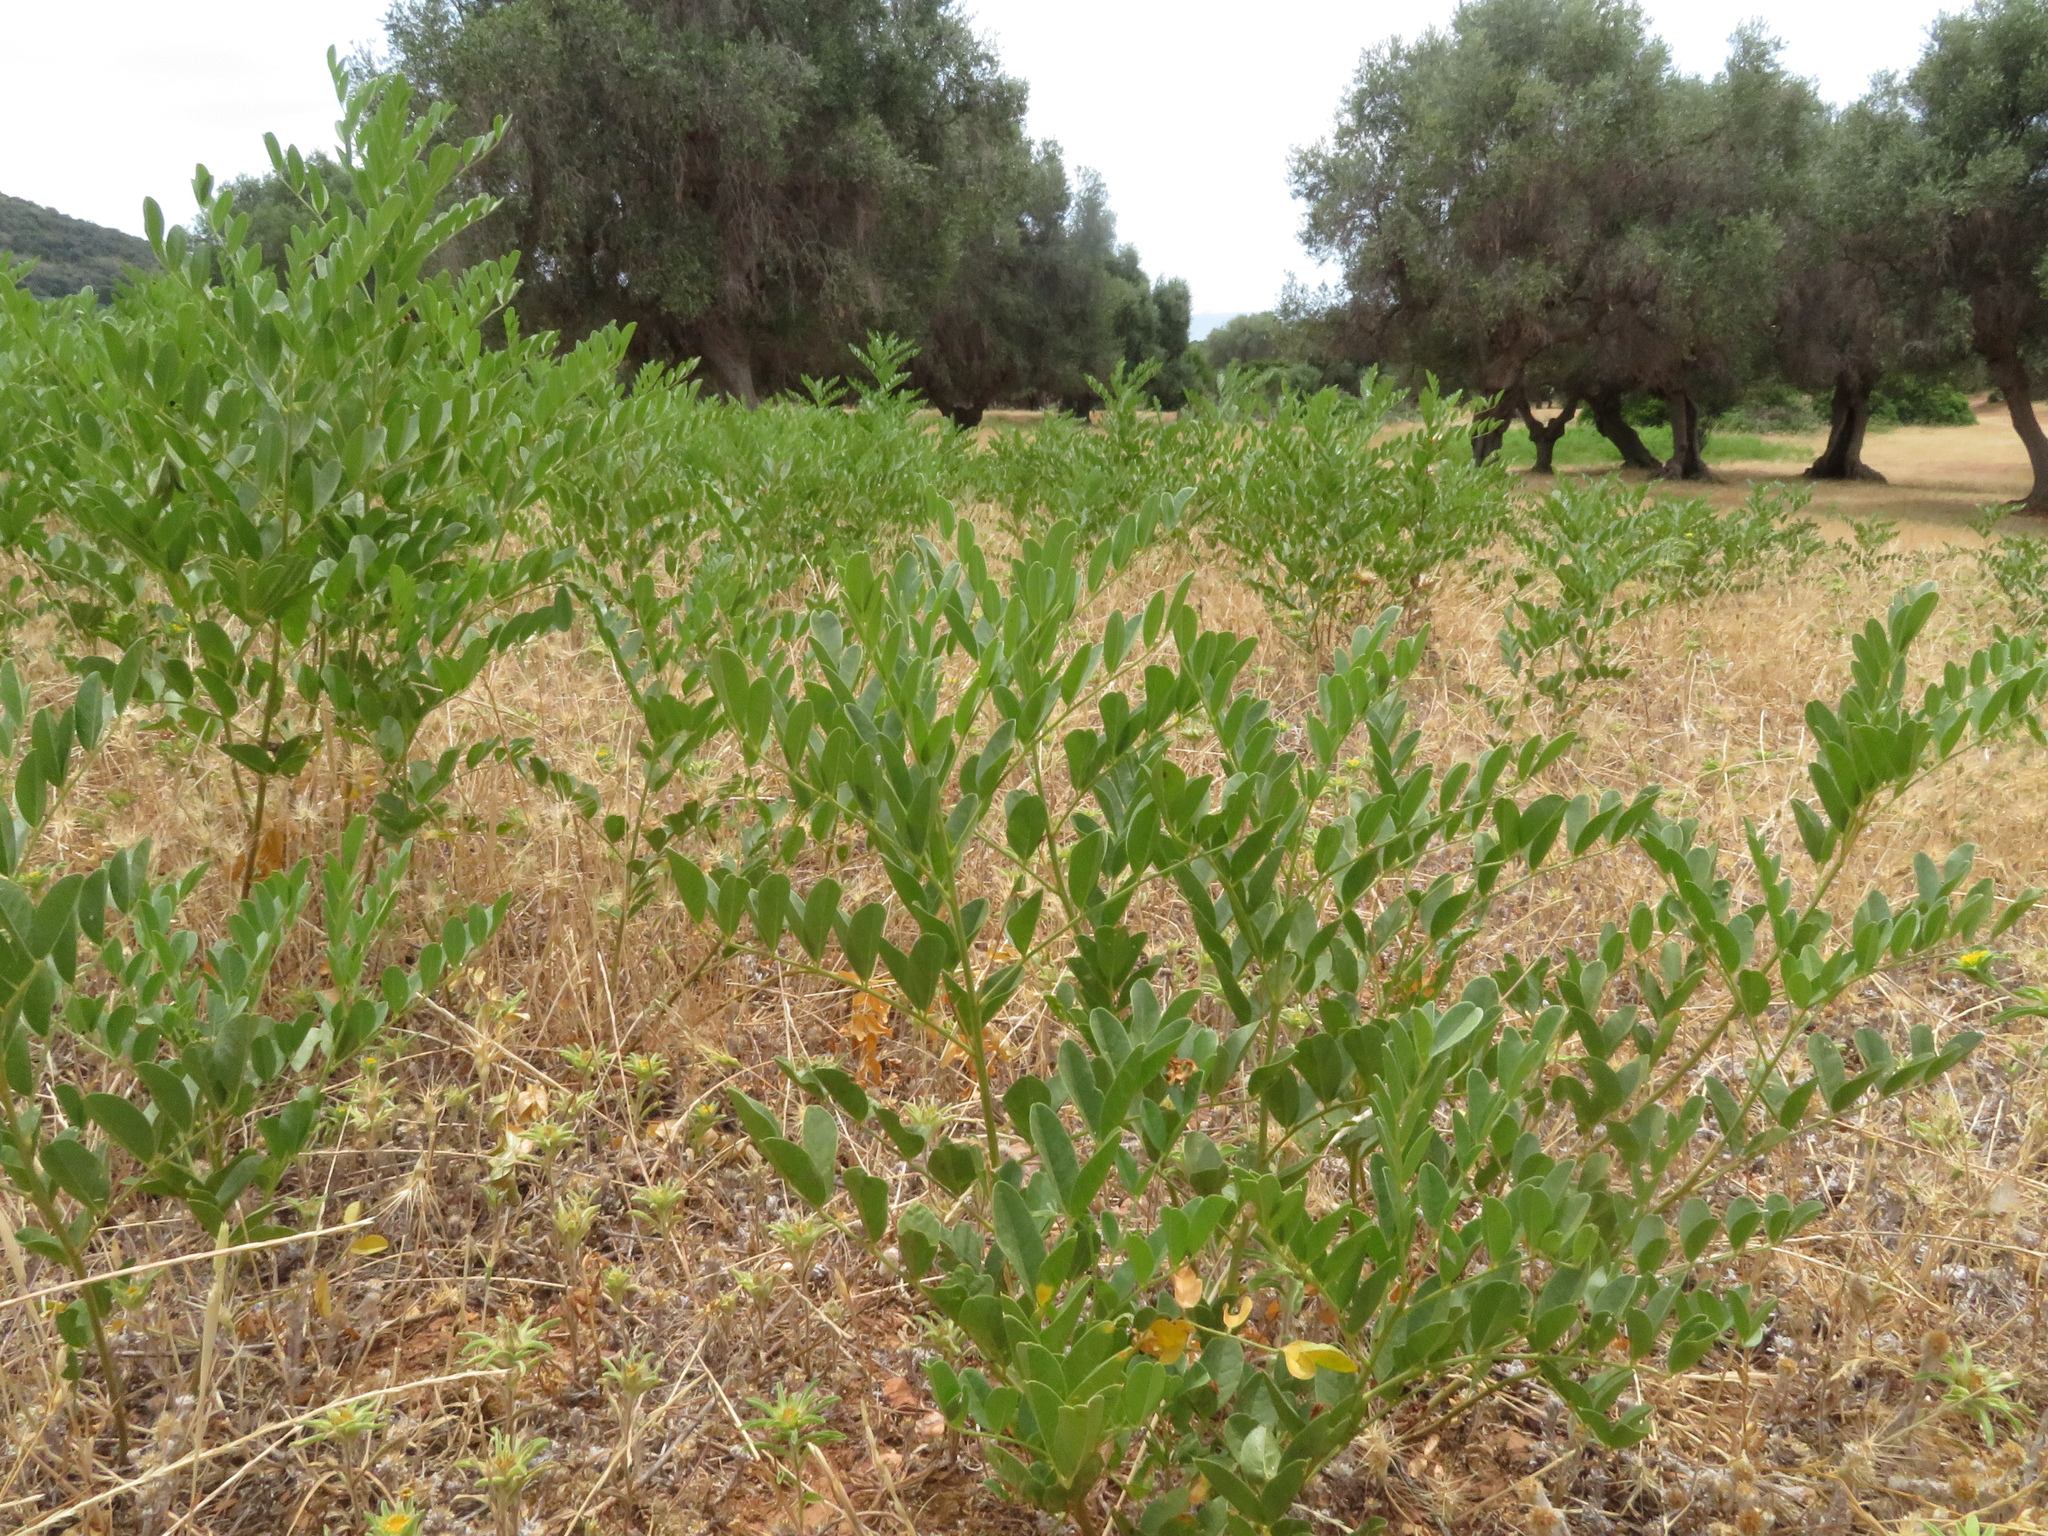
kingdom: Plantae
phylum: Tracheophyta
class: Magnoliopsida
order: Fabales
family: Fabaceae
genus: Glycyrrhiza
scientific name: Glycyrrhiza glabra
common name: Liquorice
